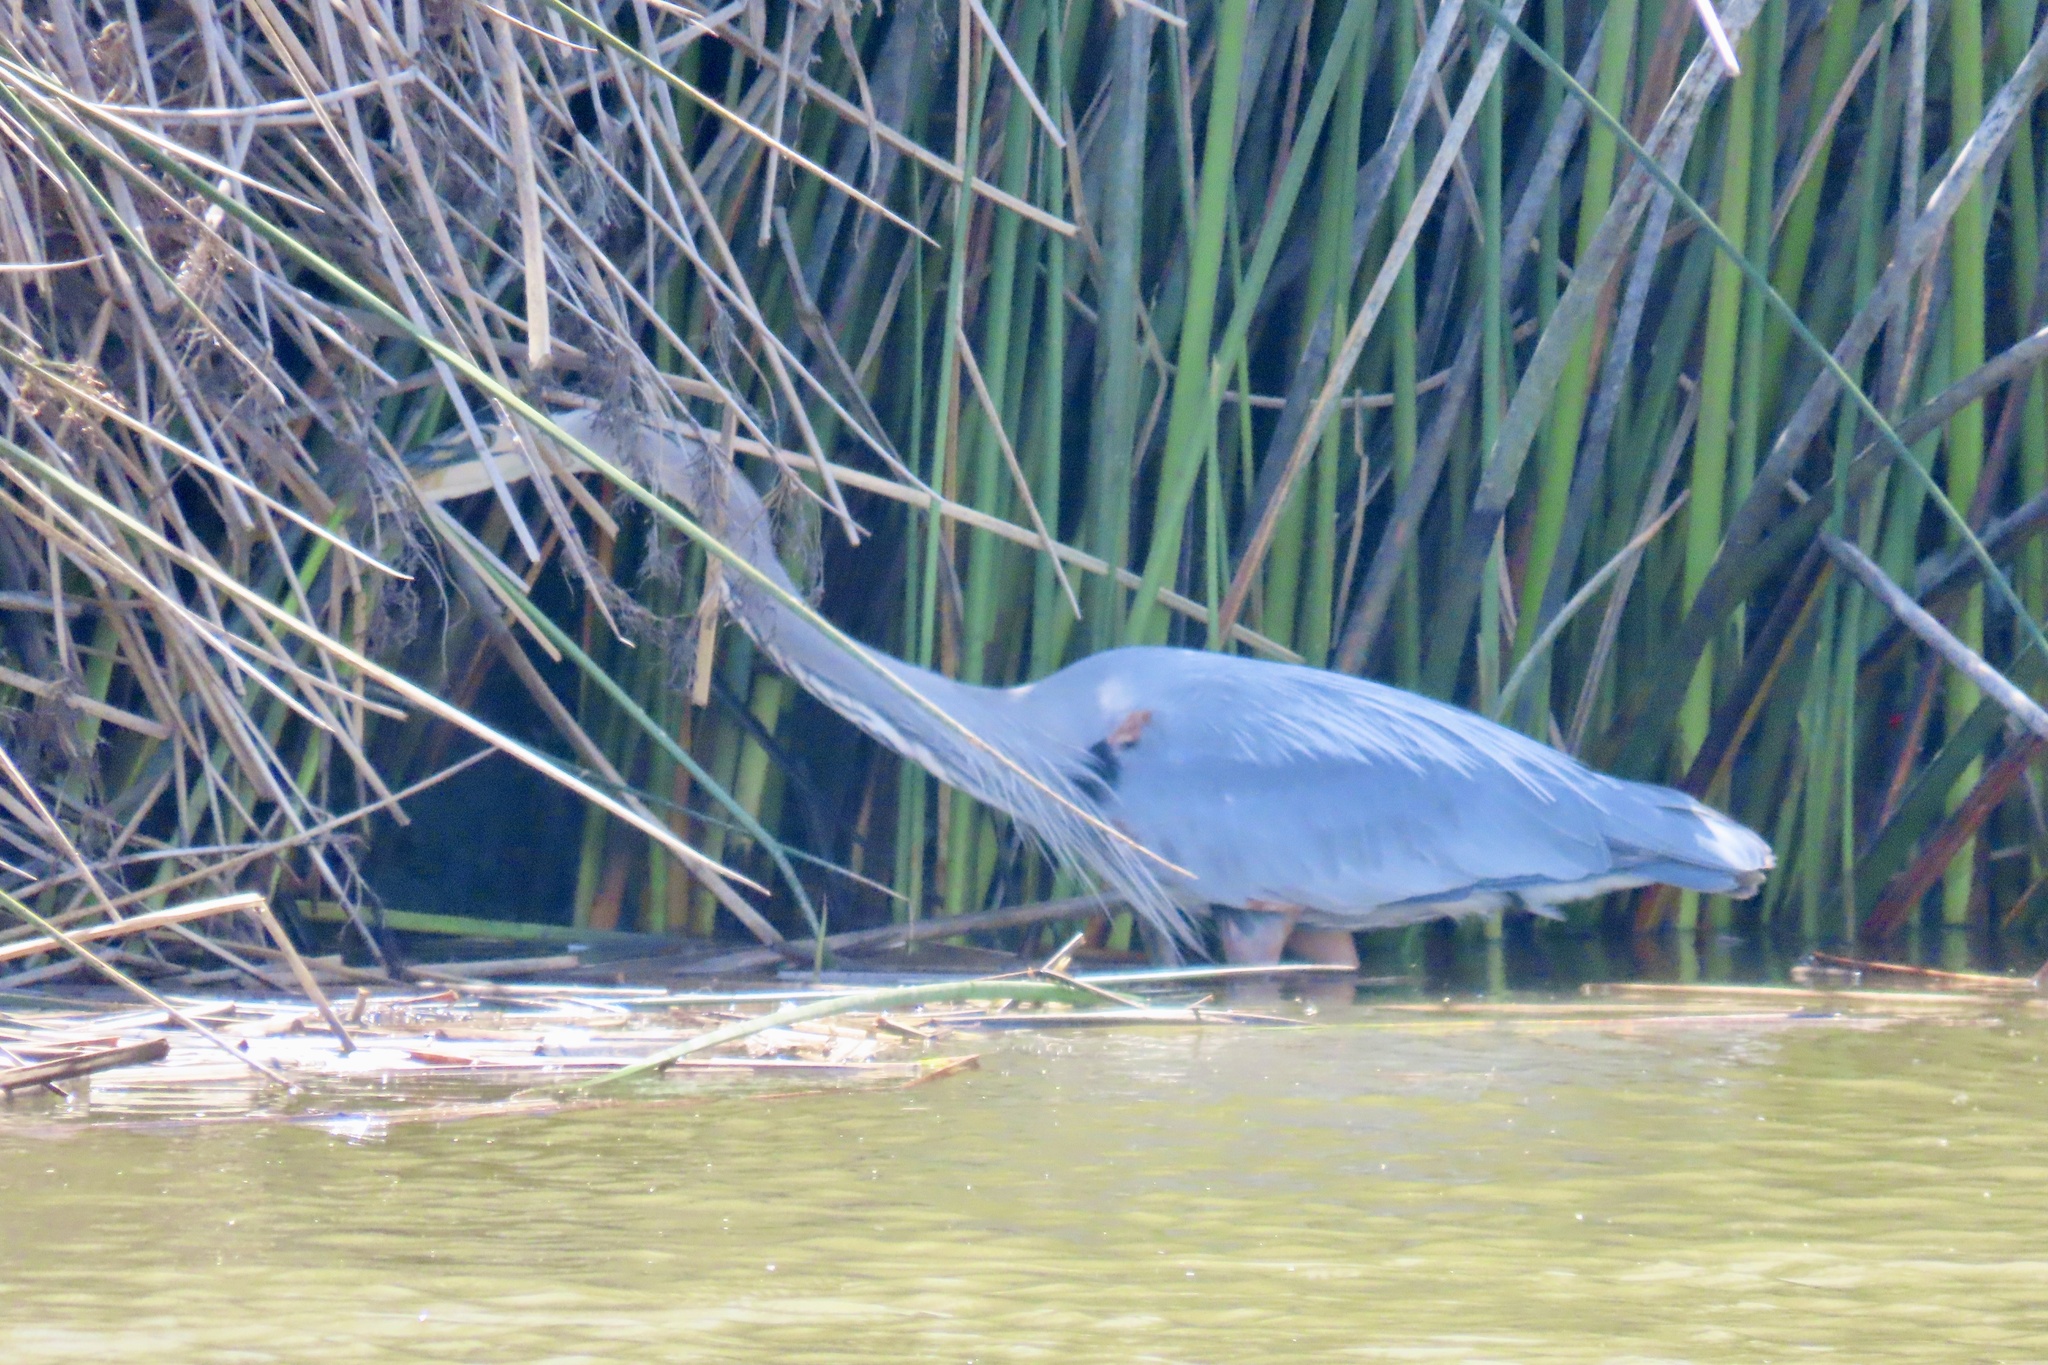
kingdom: Animalia
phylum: Chordata
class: Aves
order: Pelecaniformes
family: Ardeidae
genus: Ardea
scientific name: Ardea herodias
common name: Great blue heron
